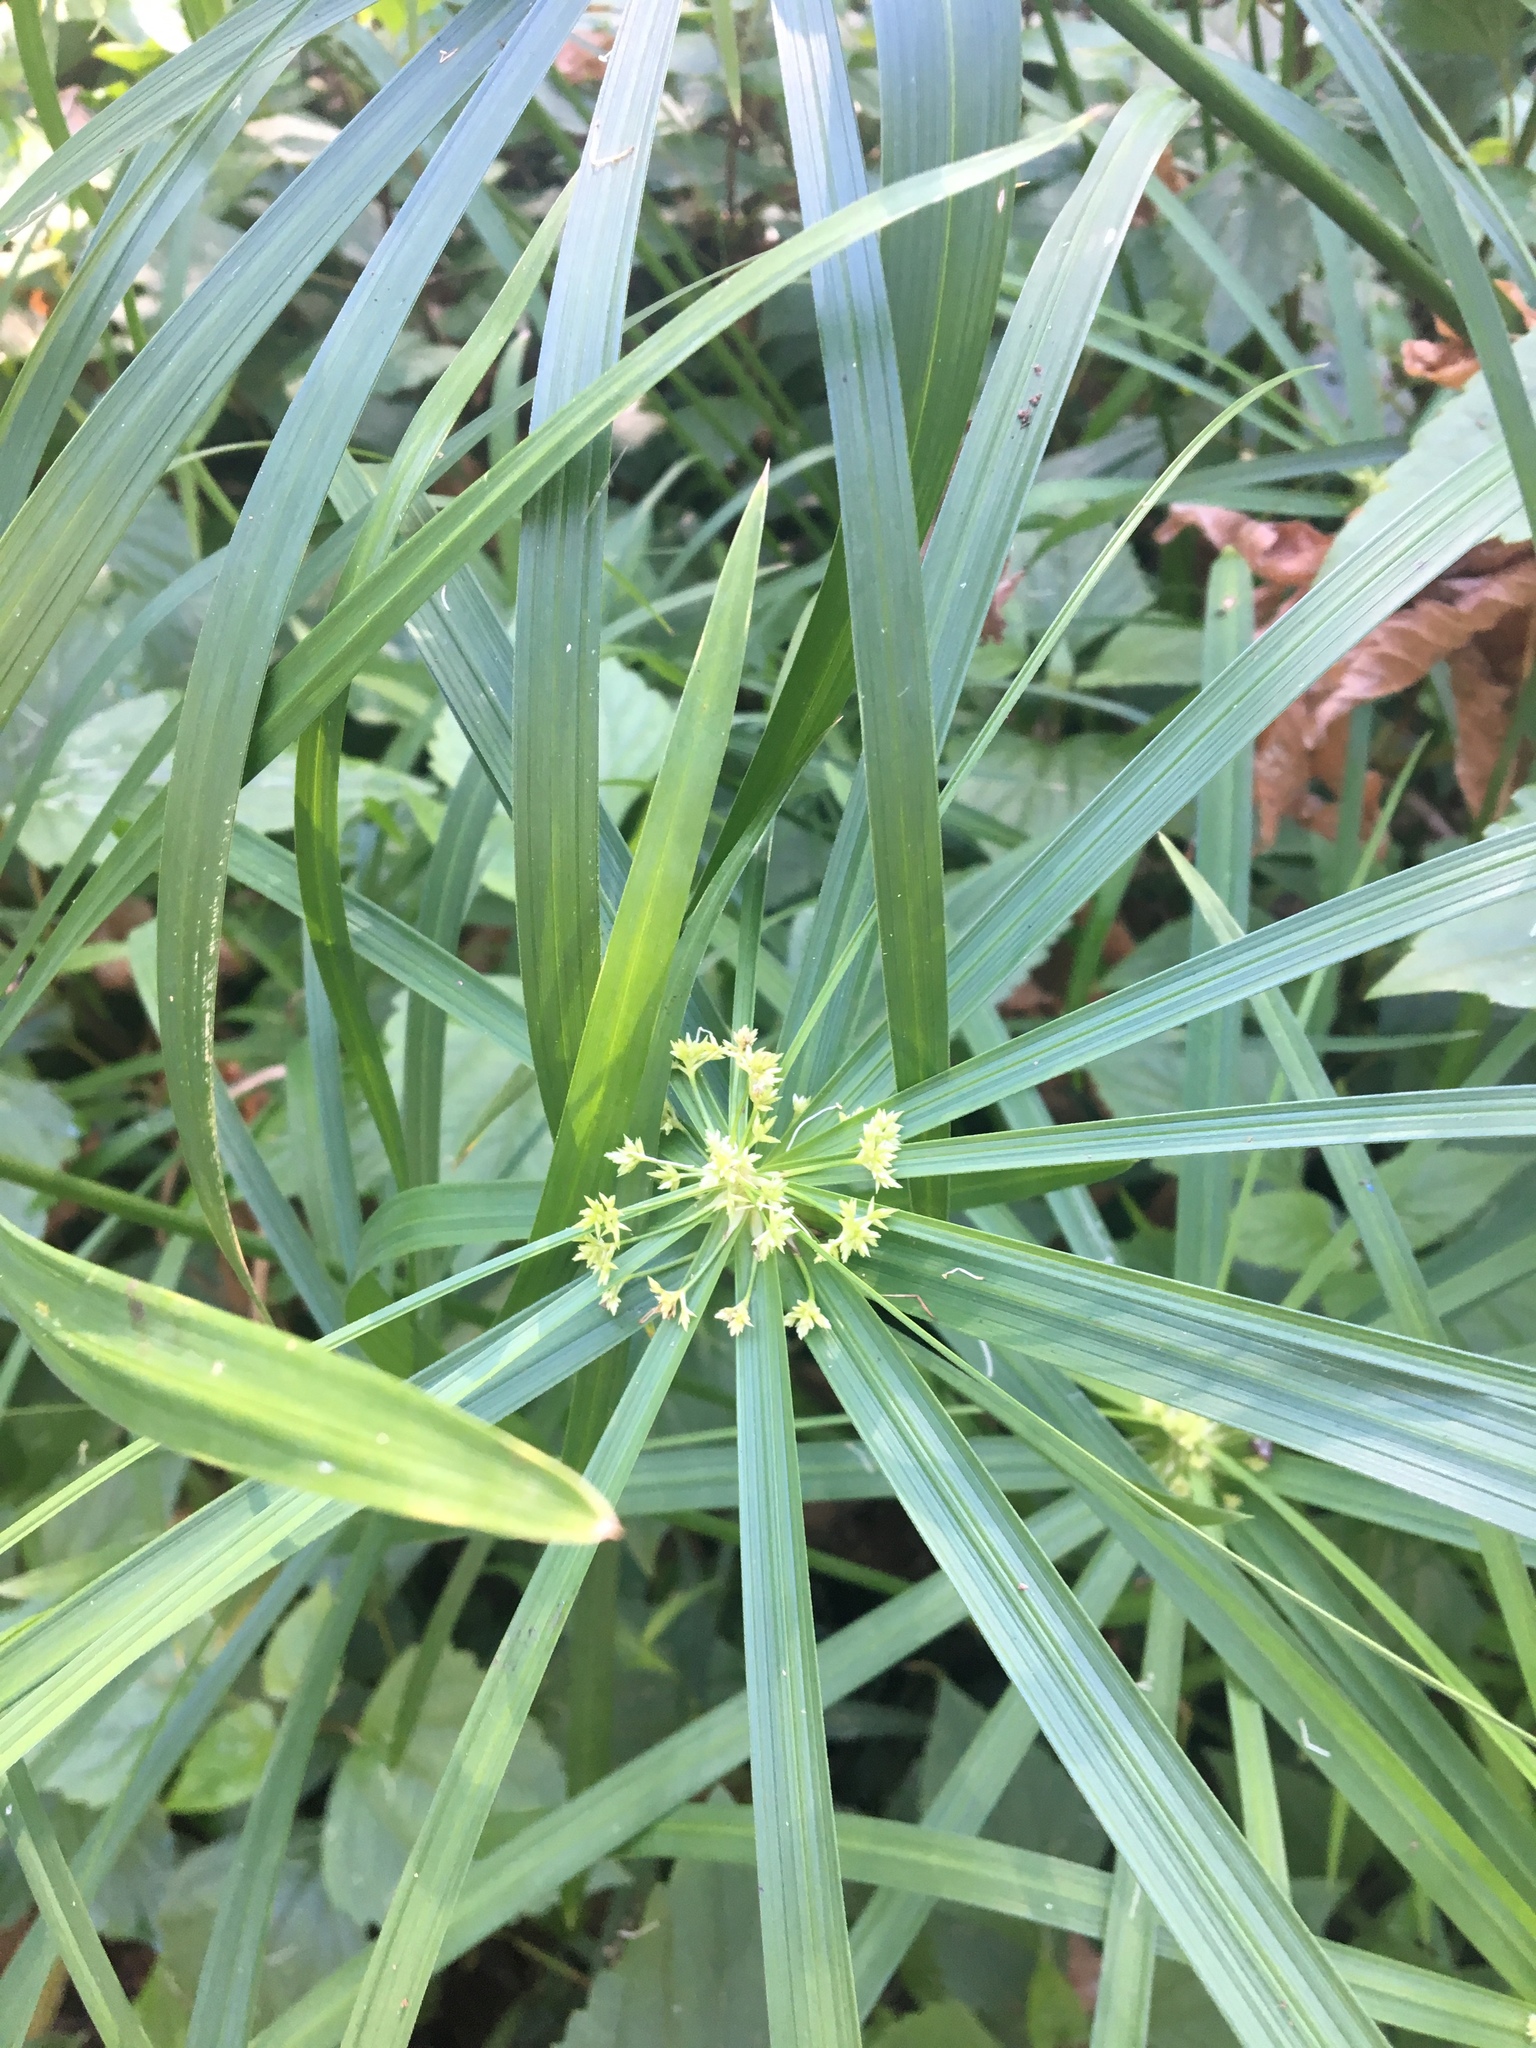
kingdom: Plantae
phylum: Tracheophyta
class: Liliopsida
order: Poales
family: Cyperaceae
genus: Cyperus
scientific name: Cyperus alternifolius
